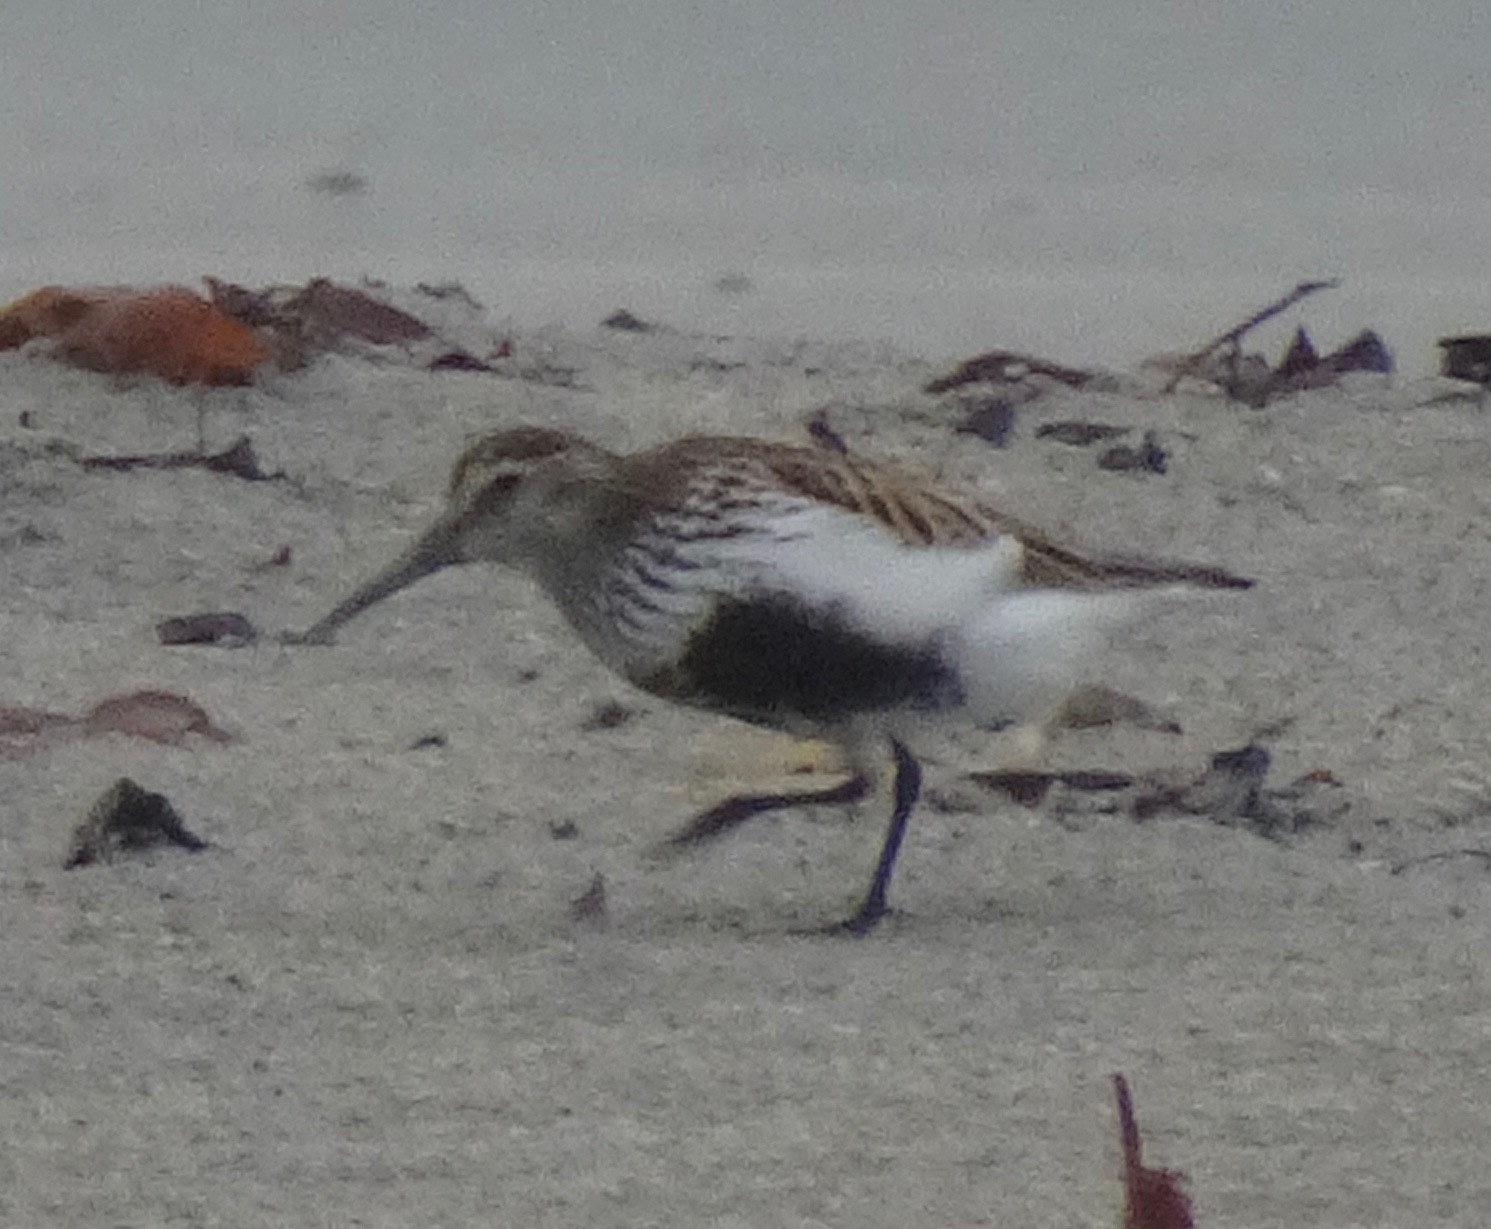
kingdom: Animalia
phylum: Chordata
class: Aves
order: Charadriiformes
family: Scolopacidae
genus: Calidris
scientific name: Calidris alpina
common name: Dunlin
